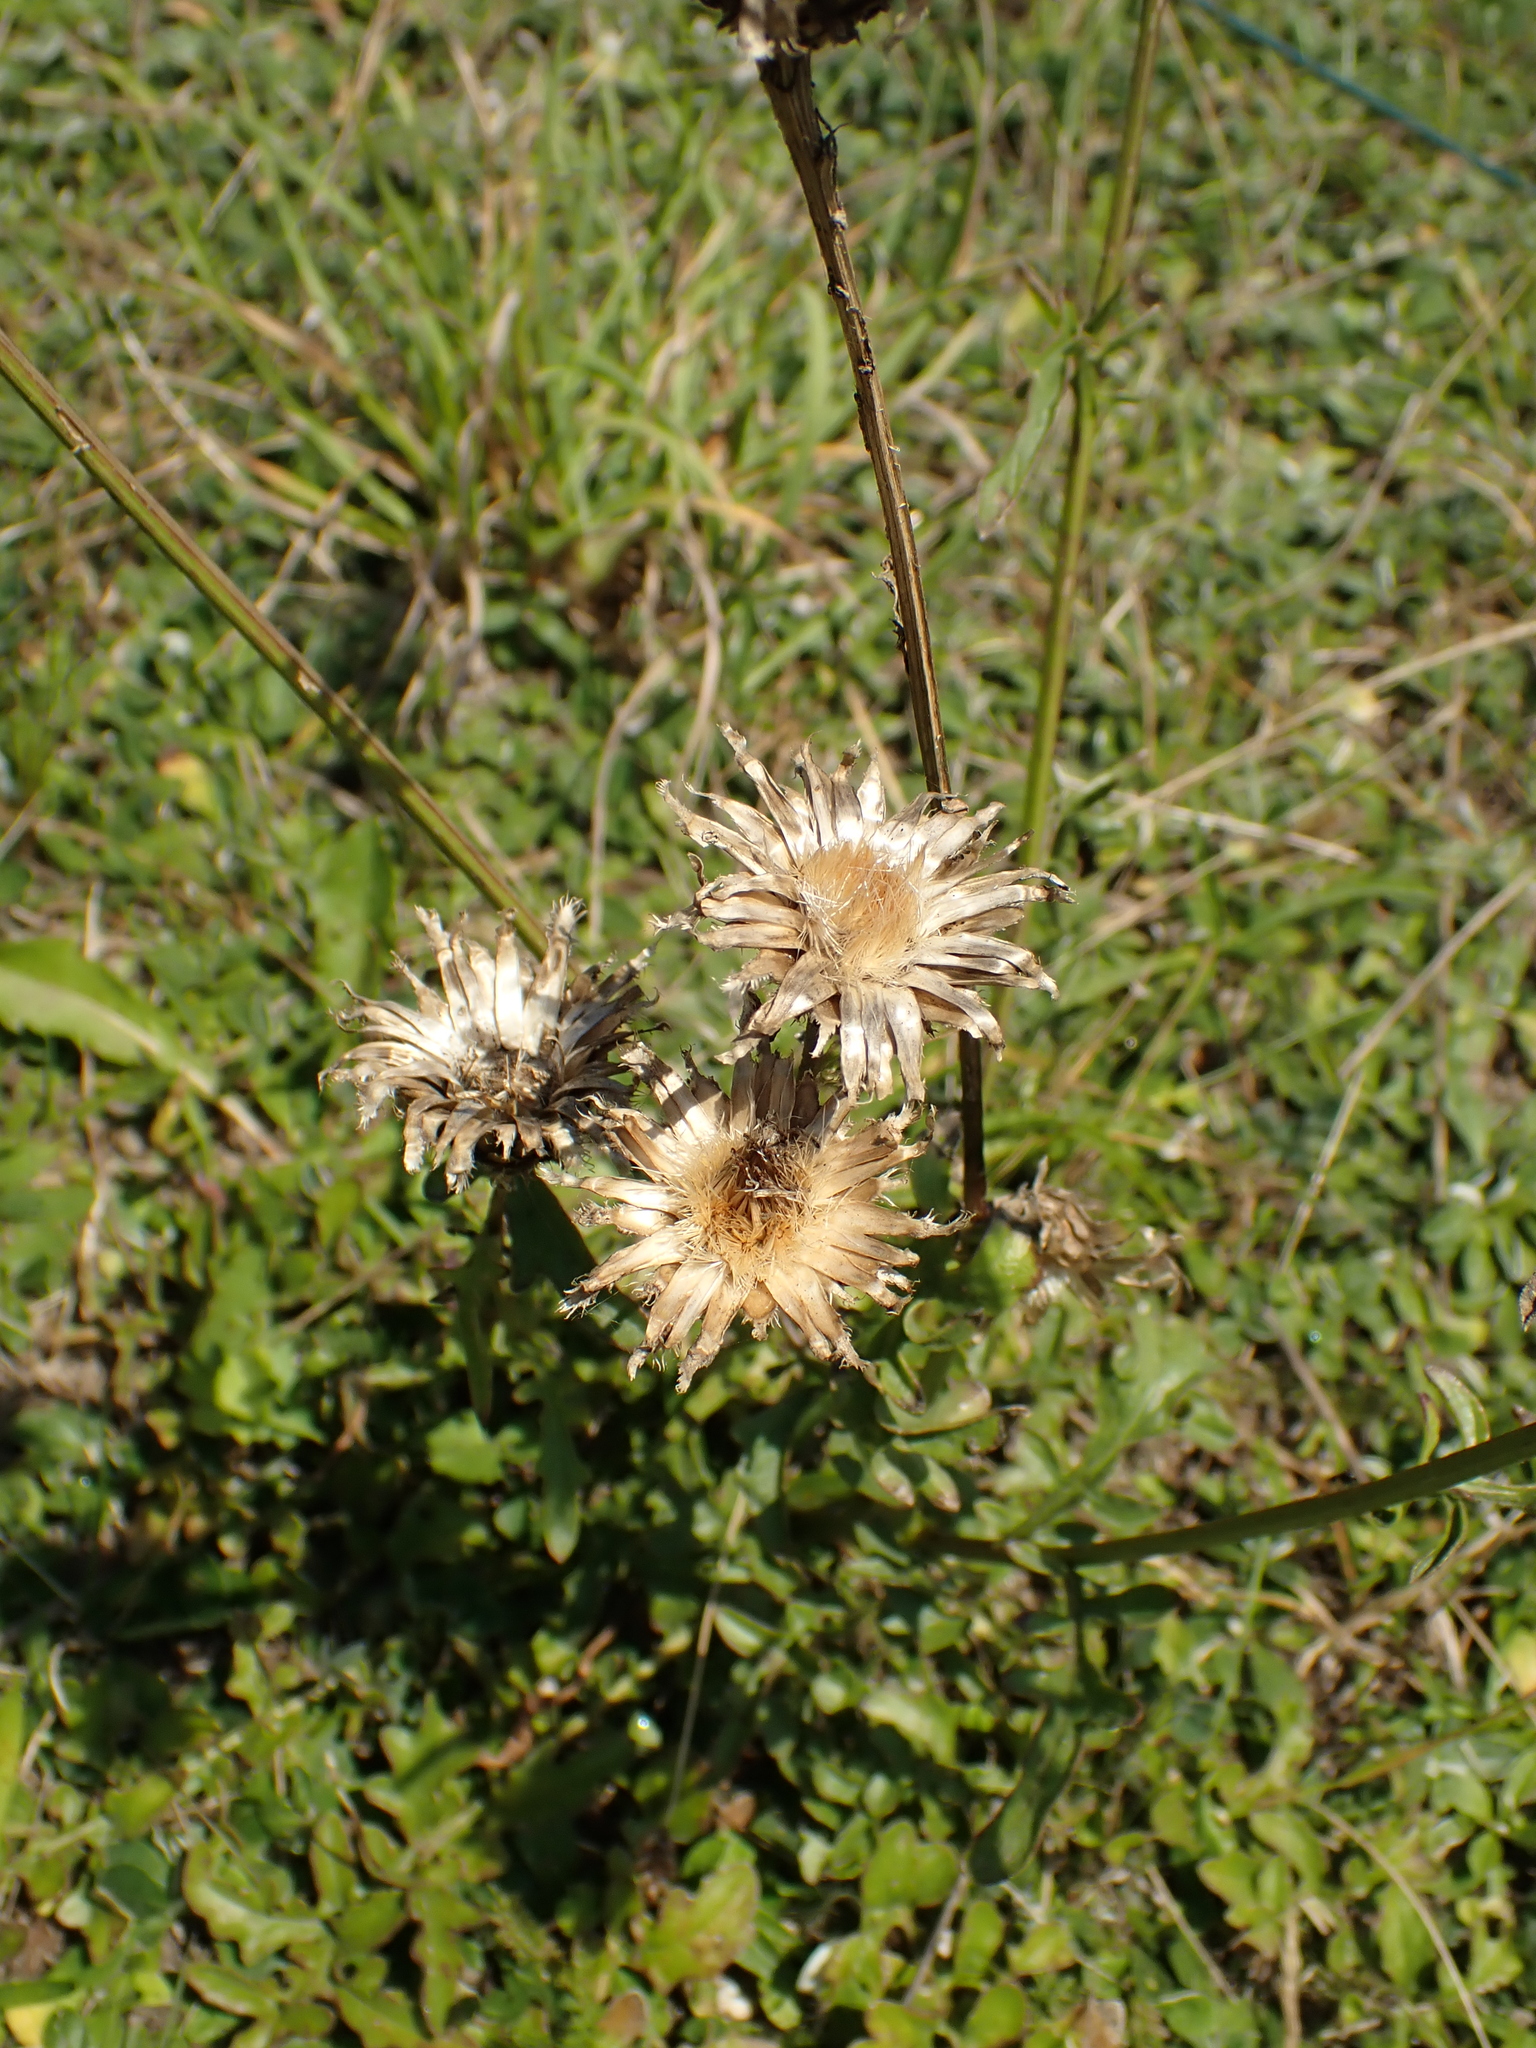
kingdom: Plantae
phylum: Tracheophyta
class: Magnoliopsida
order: Asterales
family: Asteraceae
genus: Centaurea
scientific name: Centaurea scabiosa
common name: Greater knapweed
